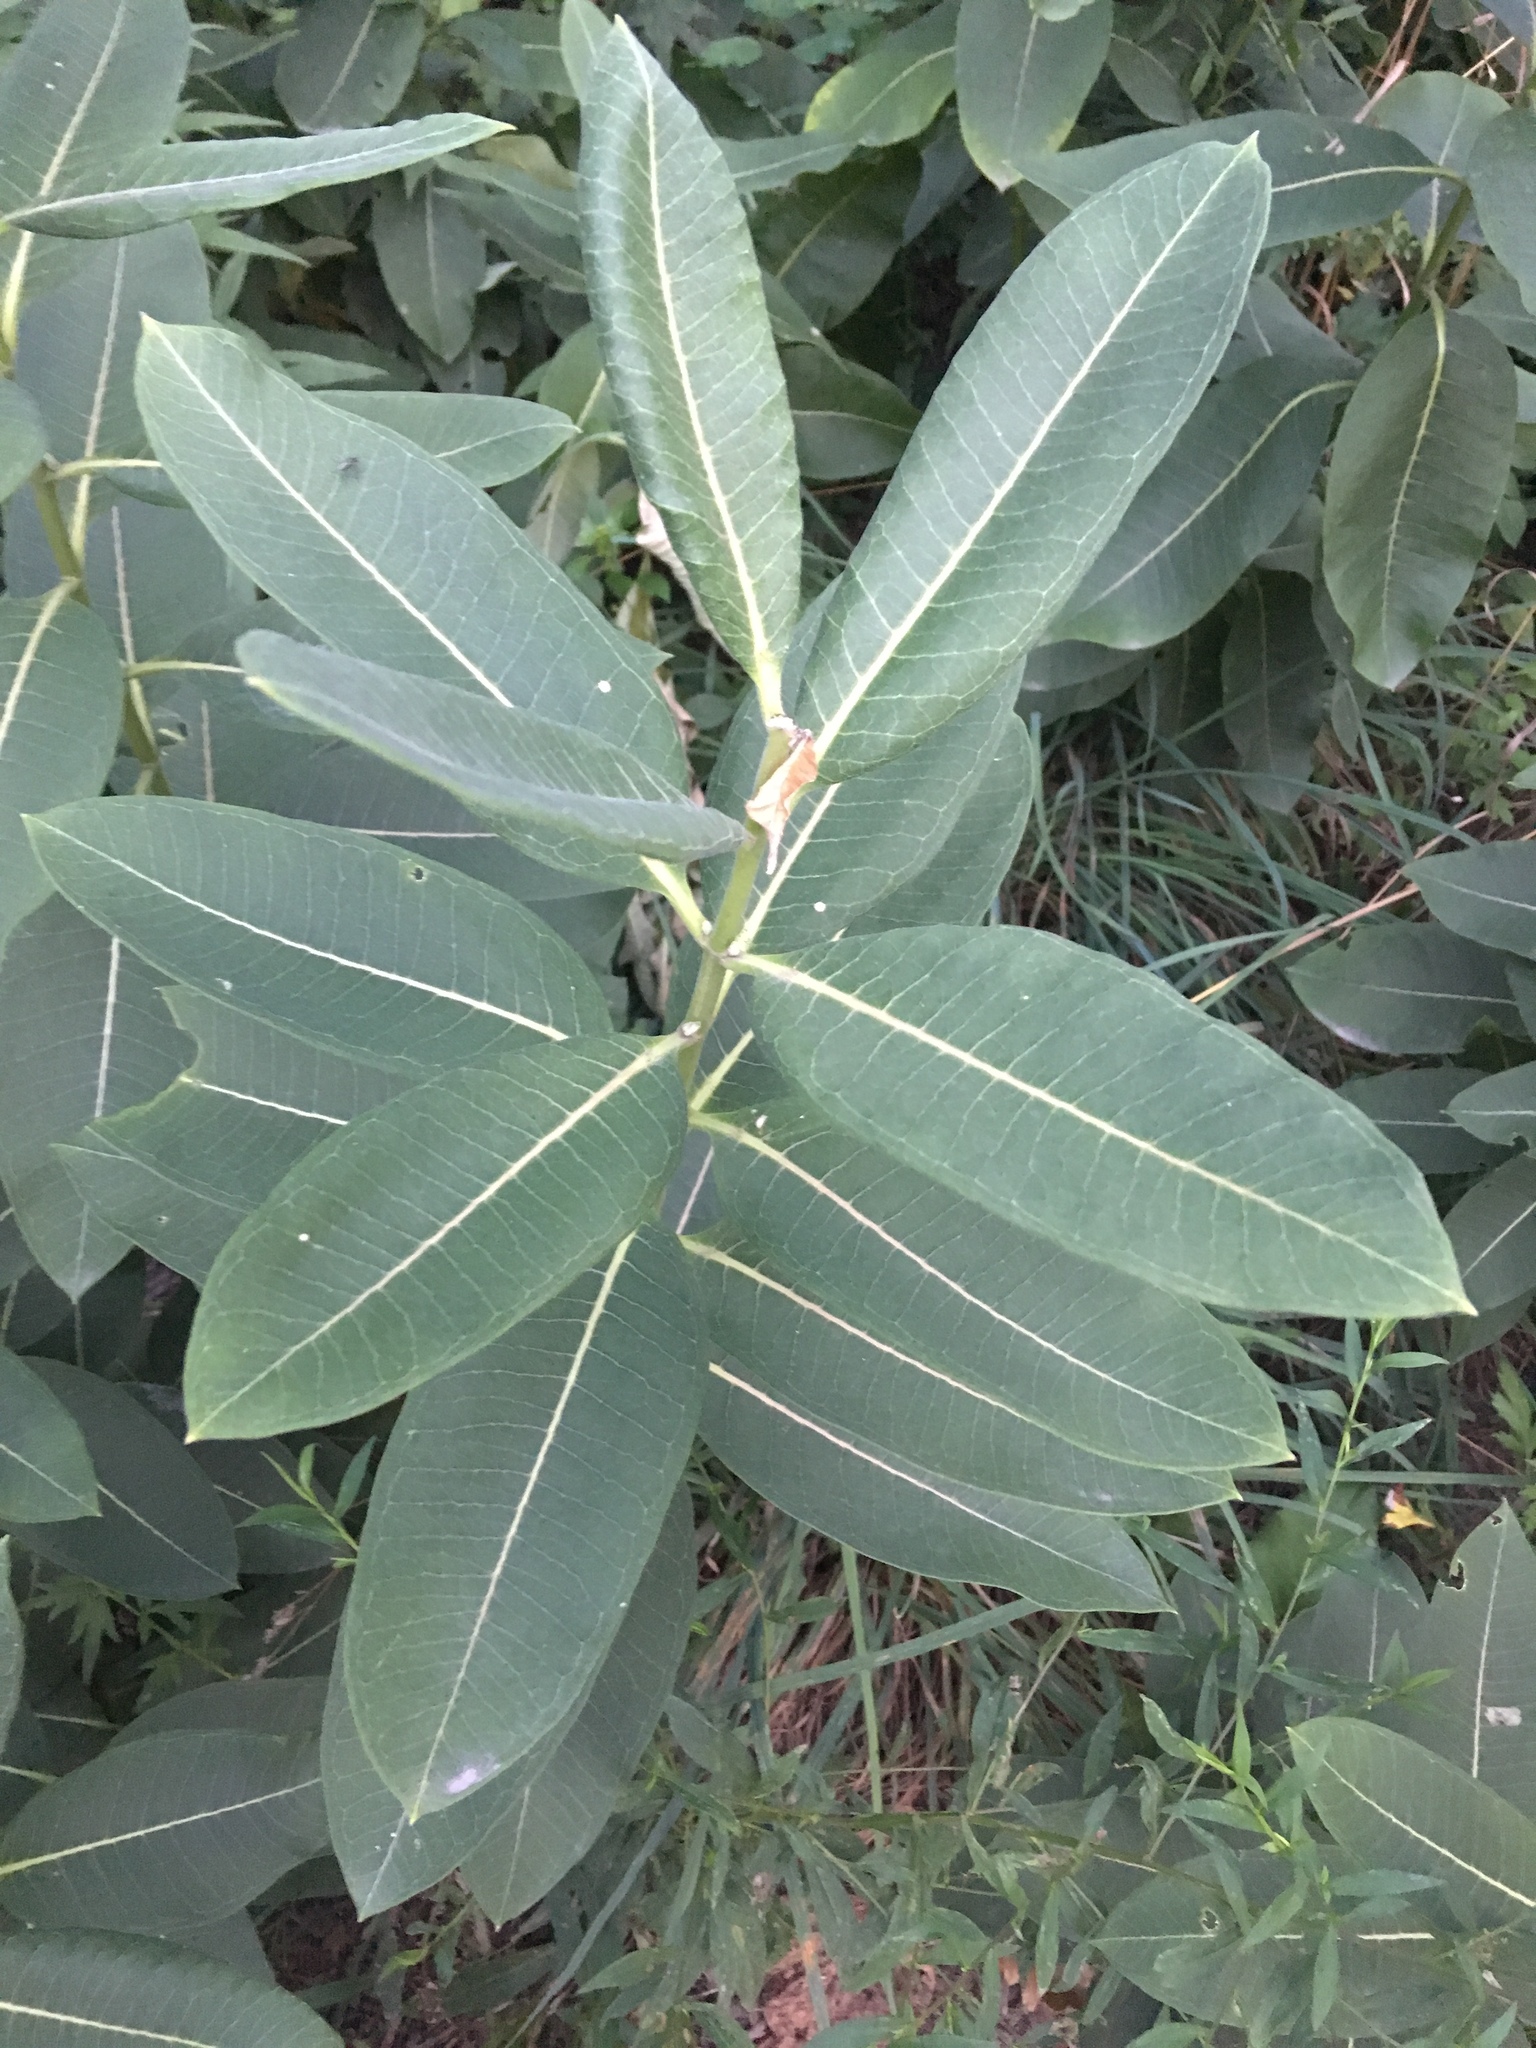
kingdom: Plantae
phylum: Tracheophyta
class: Magnoliopsida
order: Gentianales
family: Apocynaceae
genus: Asclepias
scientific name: Asclepias syriaca
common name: Common milkweed
